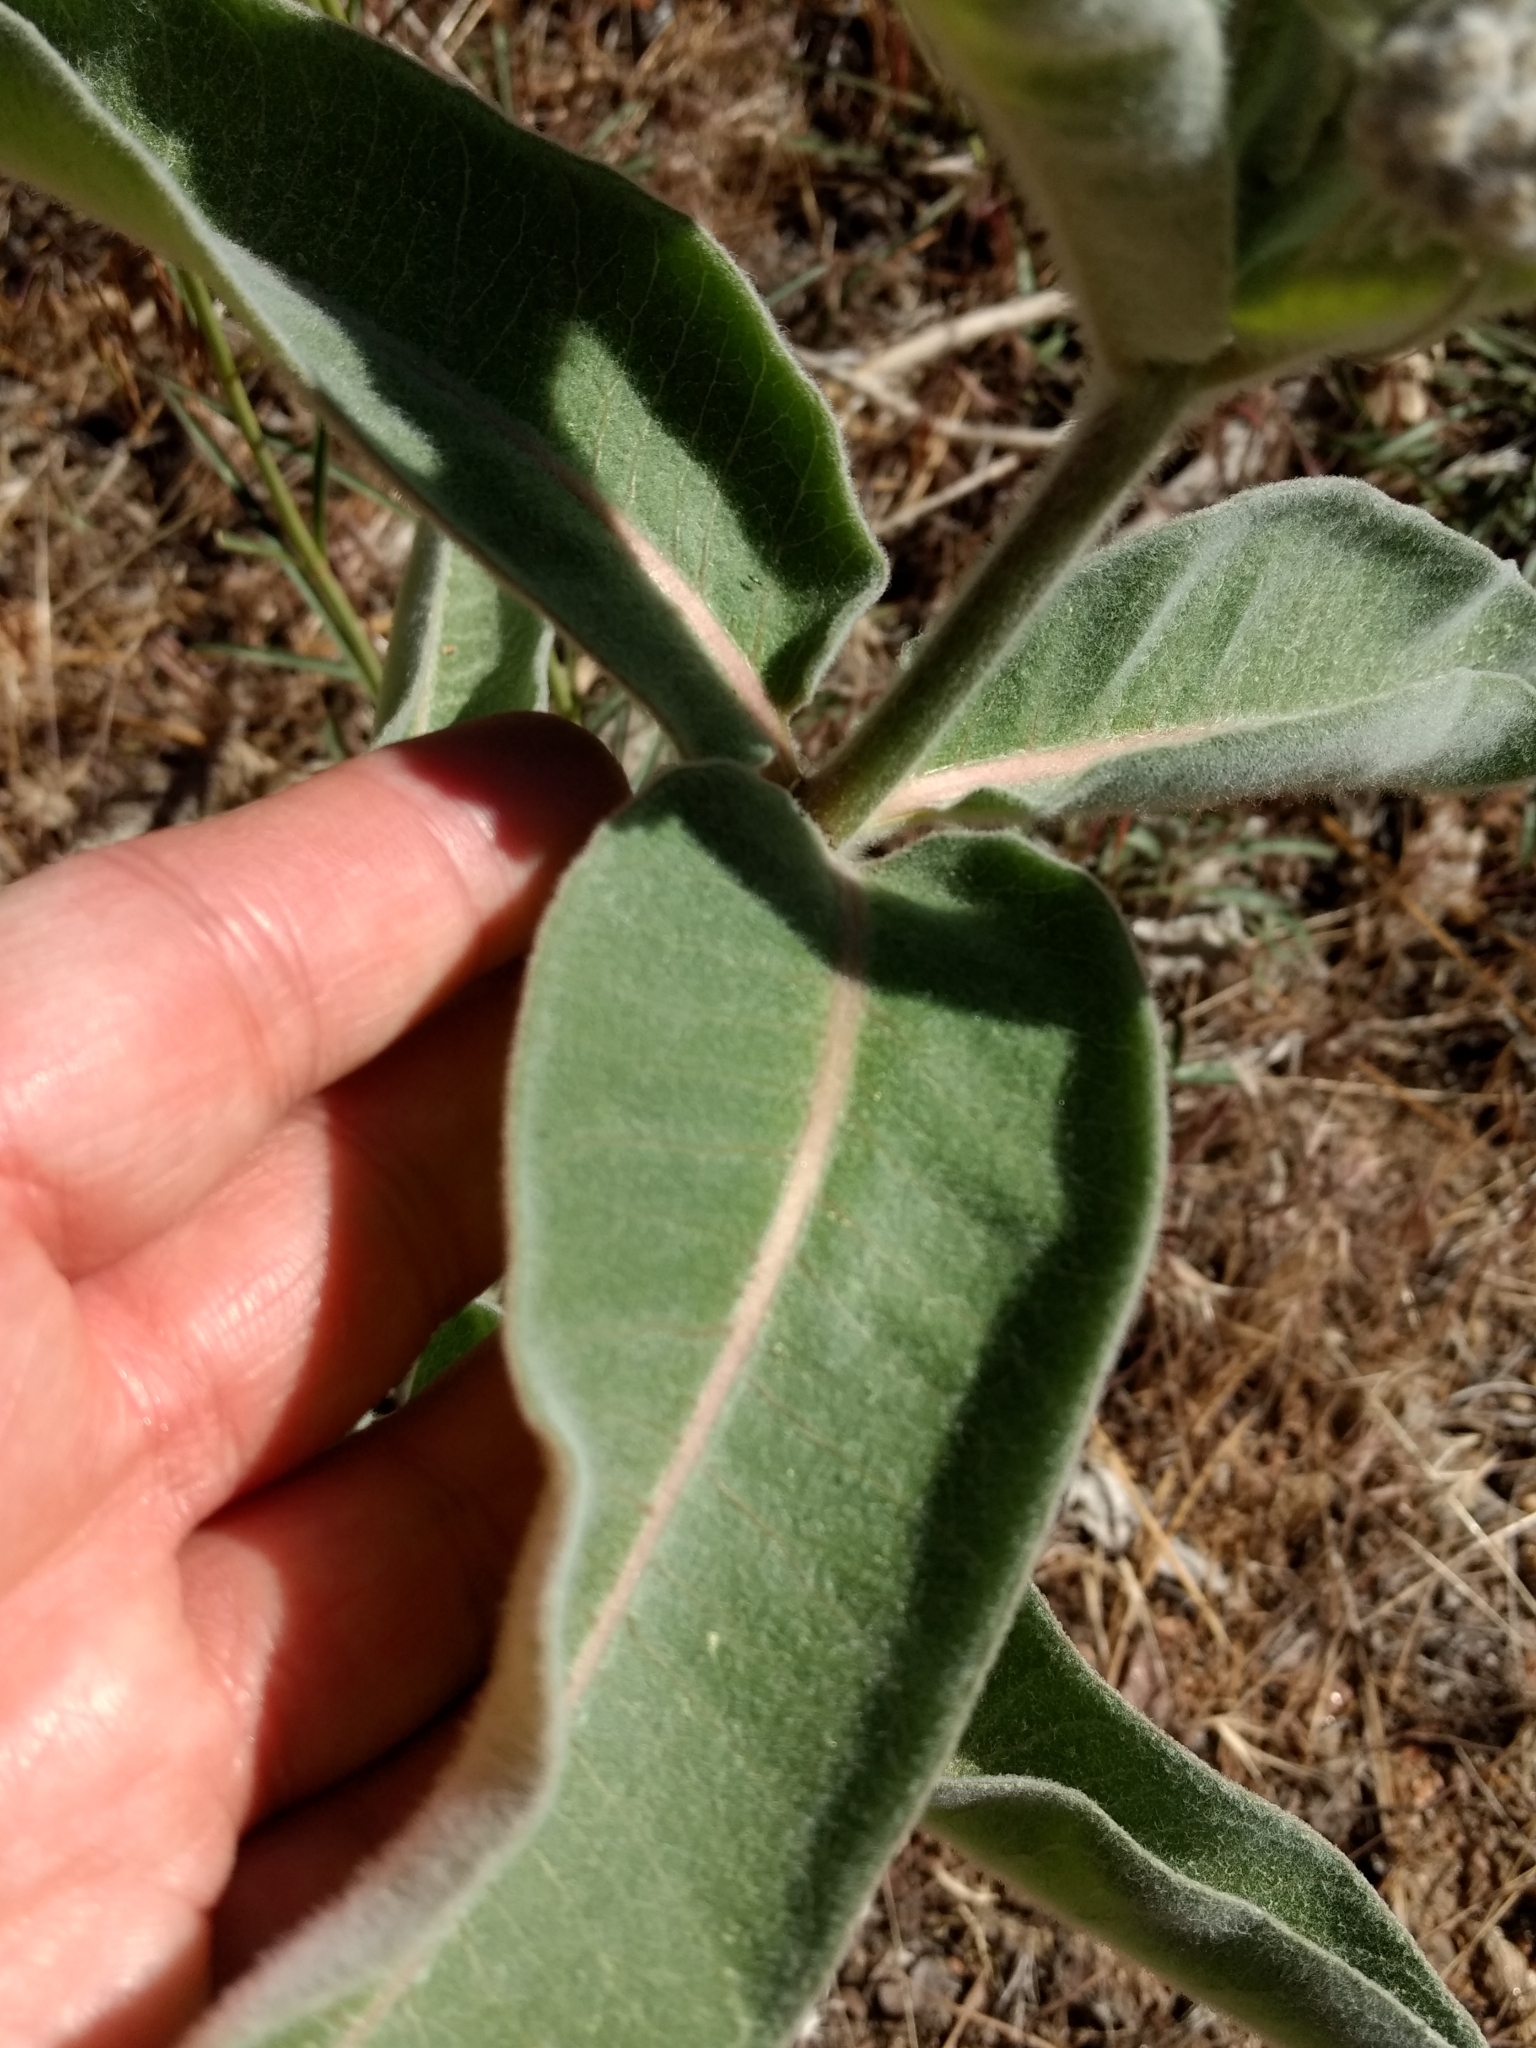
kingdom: Plantae
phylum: Tracheophyta
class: Magnoliopsida
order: Gentianales
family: Apocynaceae
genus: Asclepias
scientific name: Asclepias eriocarpa
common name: Indian milkweed
